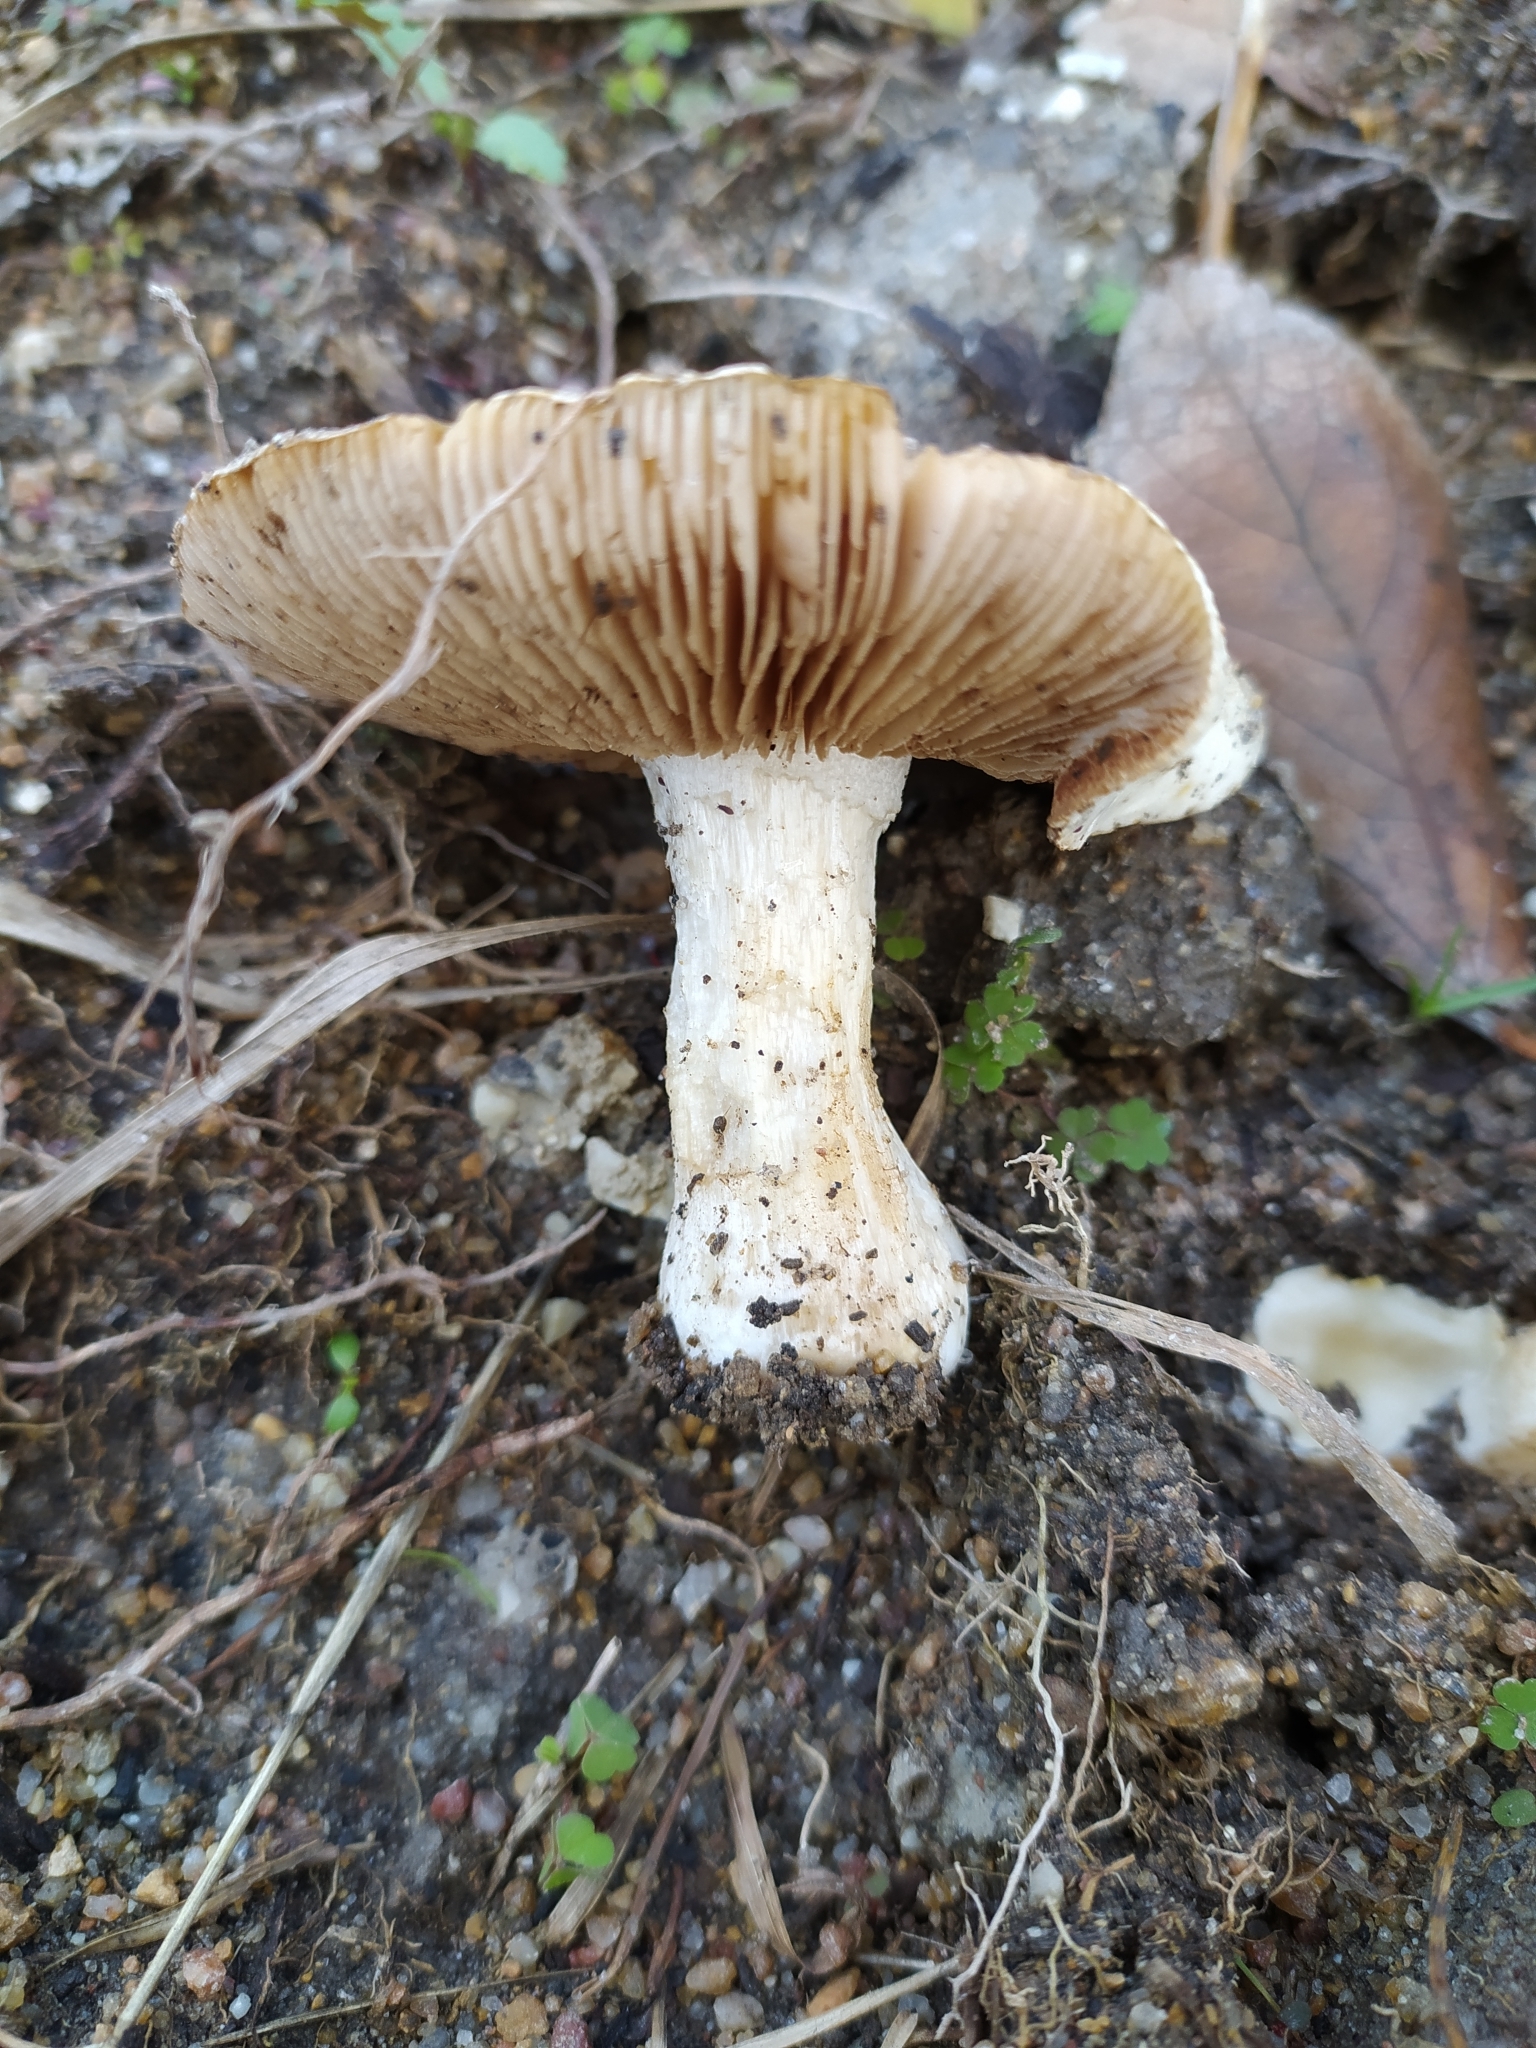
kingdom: Fungi
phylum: Basidiomycota
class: Agaricomycetes
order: Agaricales
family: Hymenogastraceae
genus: Hebeloma
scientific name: Hebeloma crustuliniforme
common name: Poison pie
